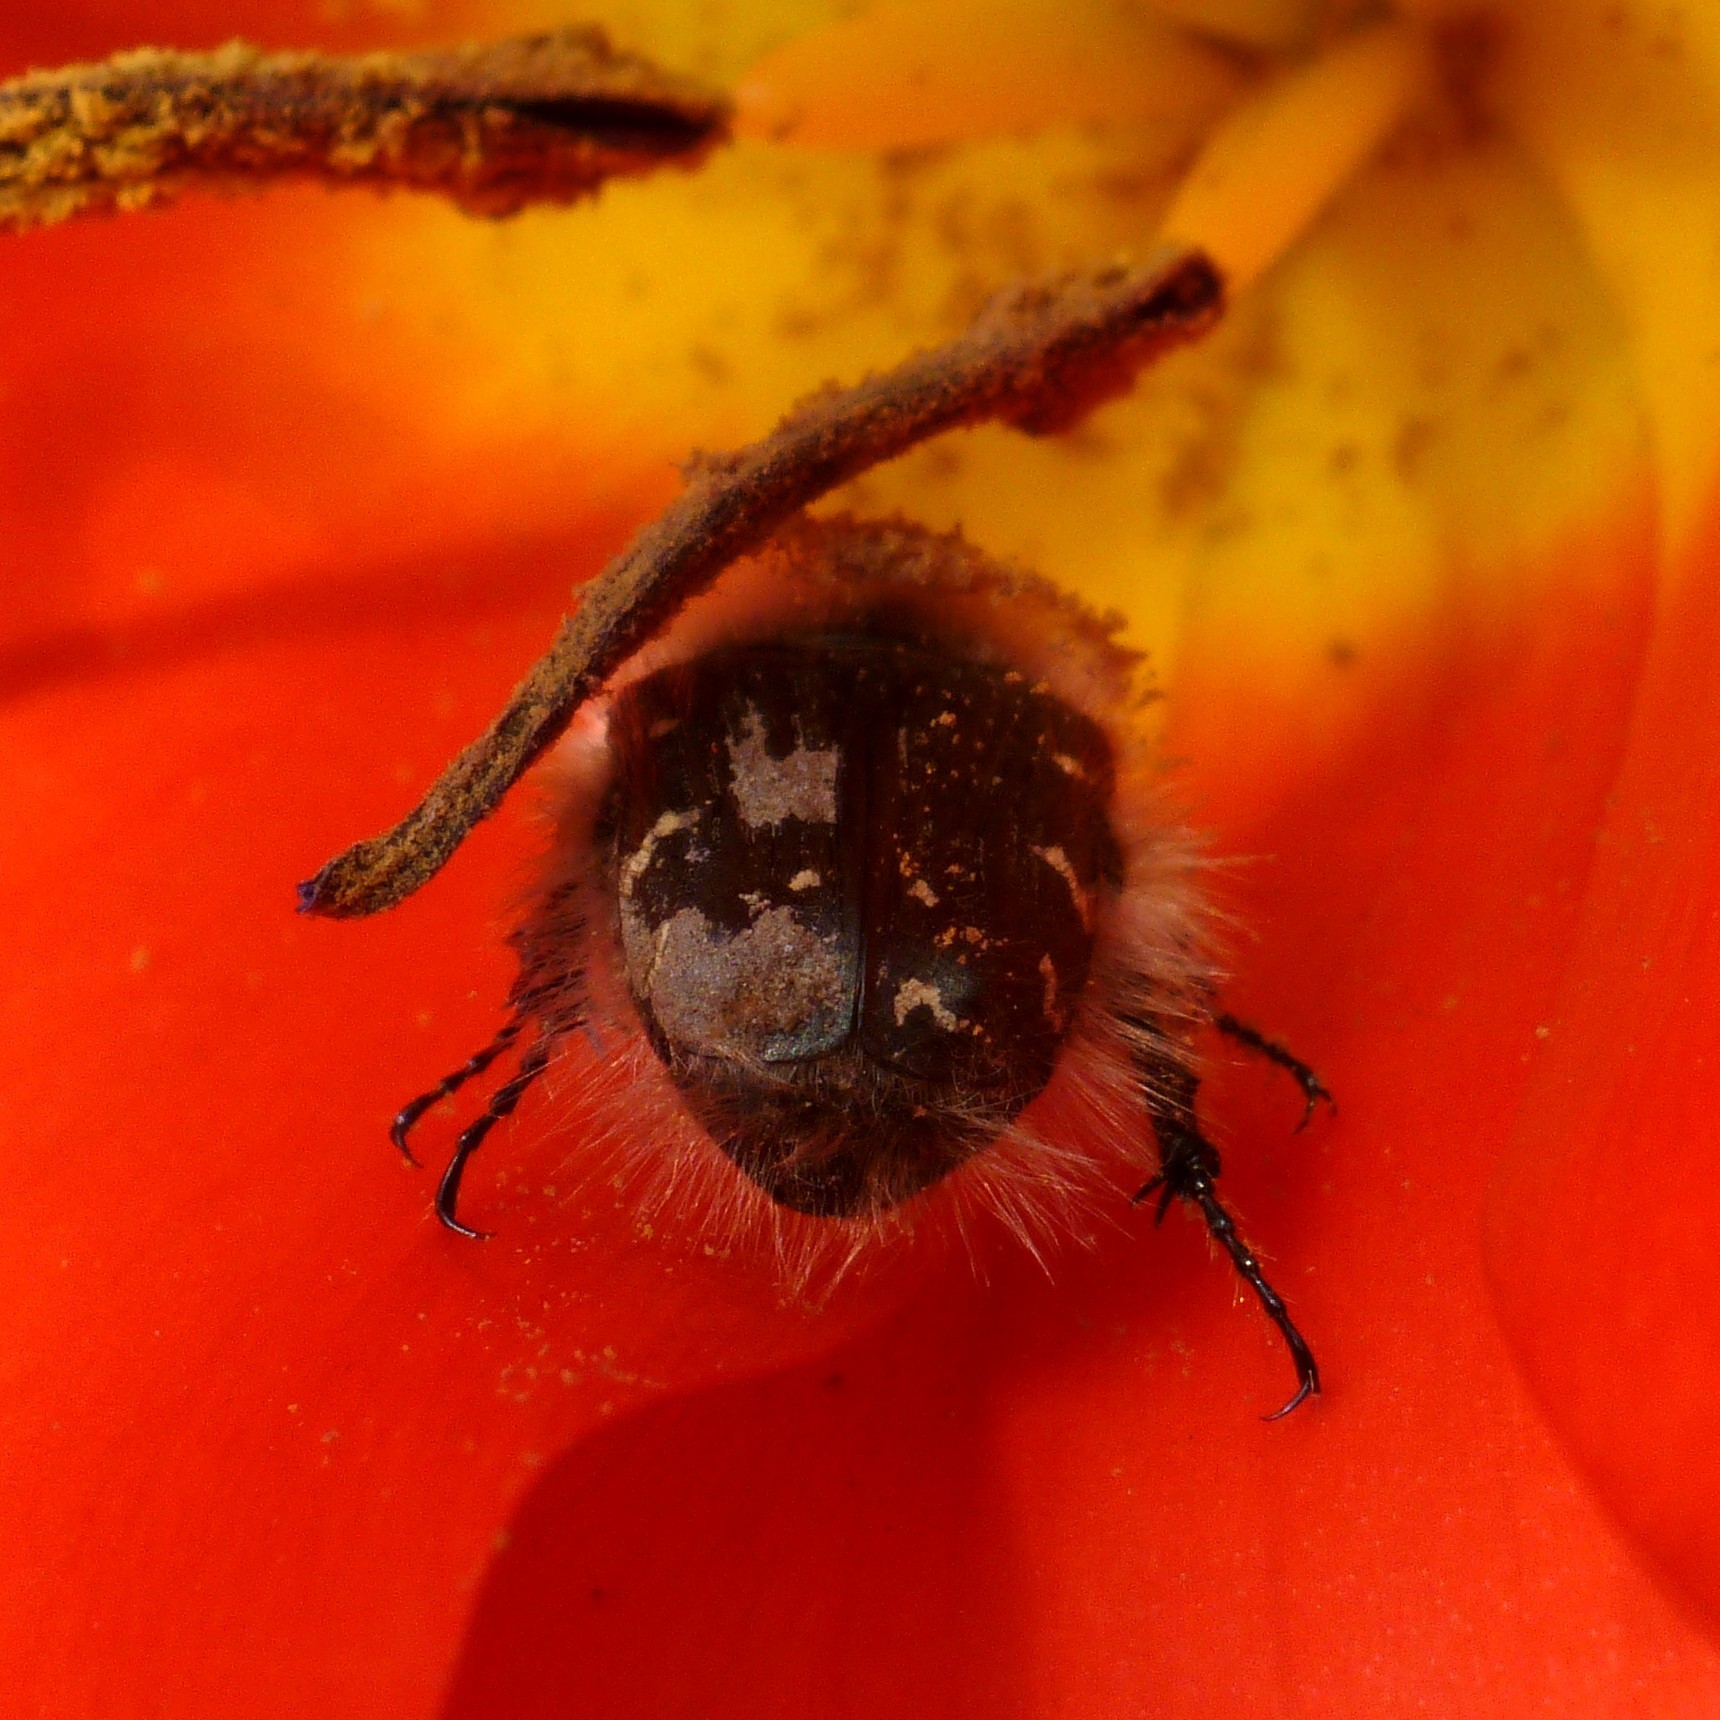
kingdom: Animalia
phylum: Arthropoda
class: Insecta
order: Coleoptera
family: Scarabaeidae
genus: Tropinota
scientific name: Tropinota hirta
